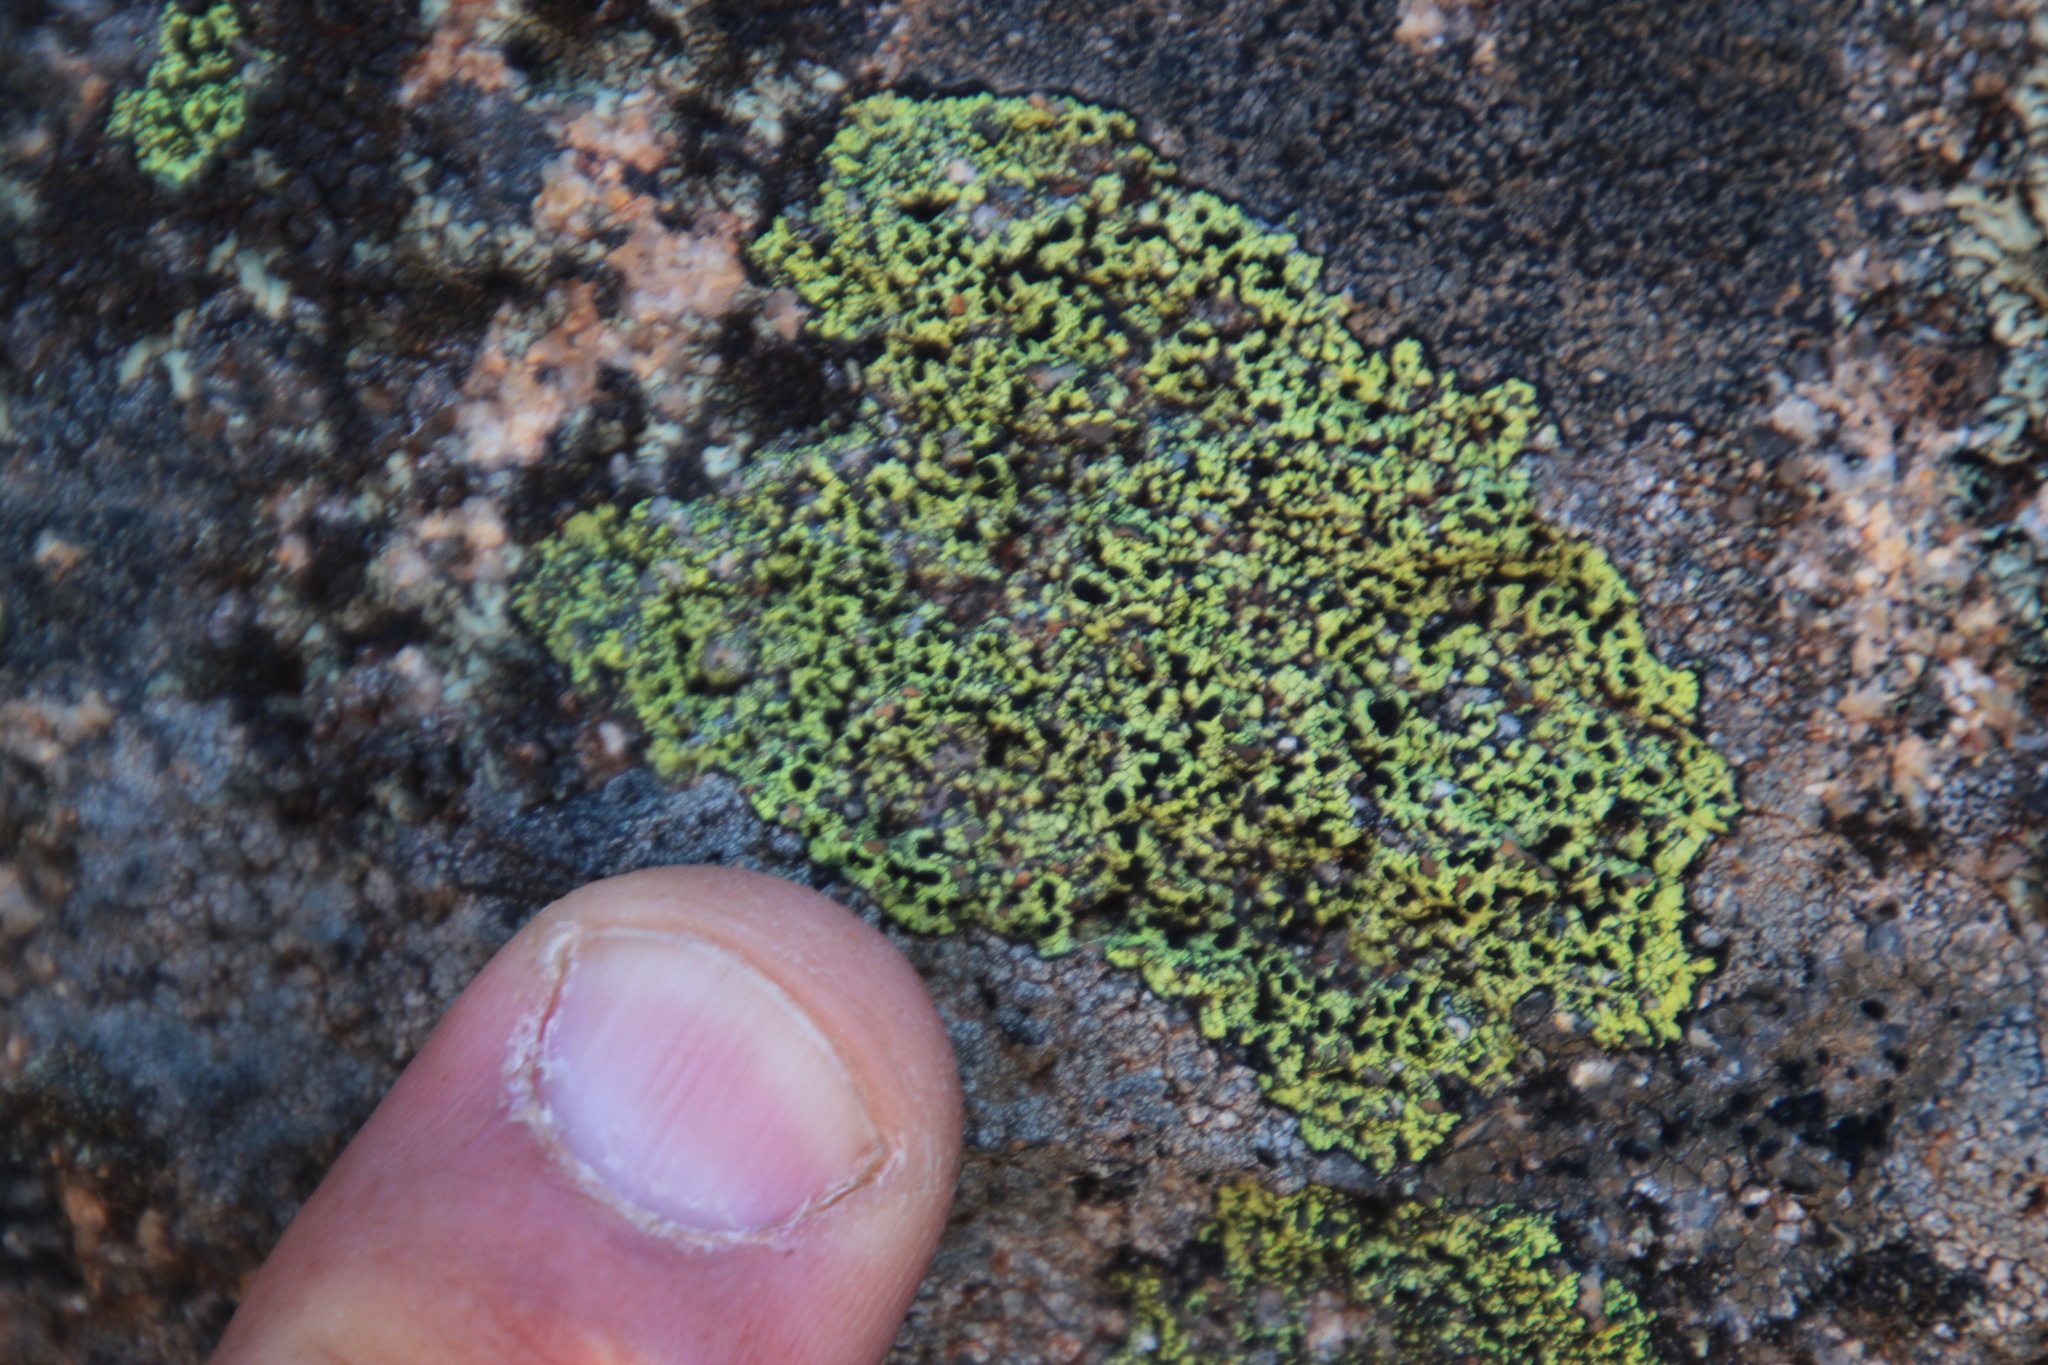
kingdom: Fungi
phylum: Ascomycota
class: Lecanoromycetes
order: Rhizocarpales
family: Rhizocarpaceae
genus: Rhizocarpon
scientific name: Rhizocarpon lecanorinum
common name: Crescent map lichen
